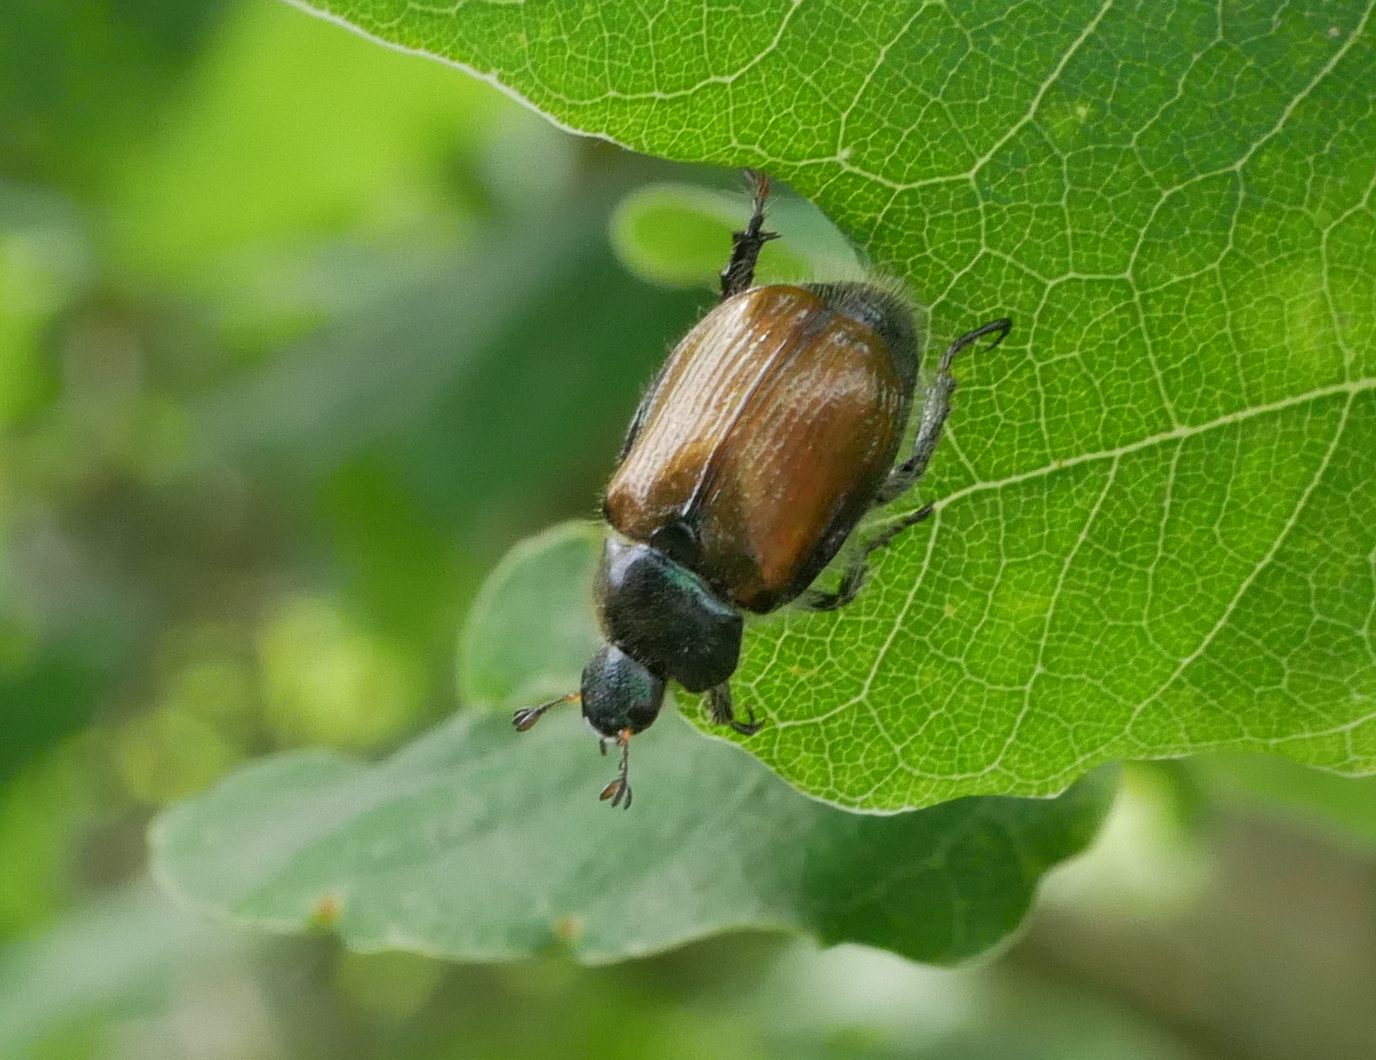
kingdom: Animalia
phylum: Arthropoda
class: Insecta
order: Coleoptera
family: Scarabaeidae
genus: Phyllopertha
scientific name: Phyllopertha horticola
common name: Garden chafer
